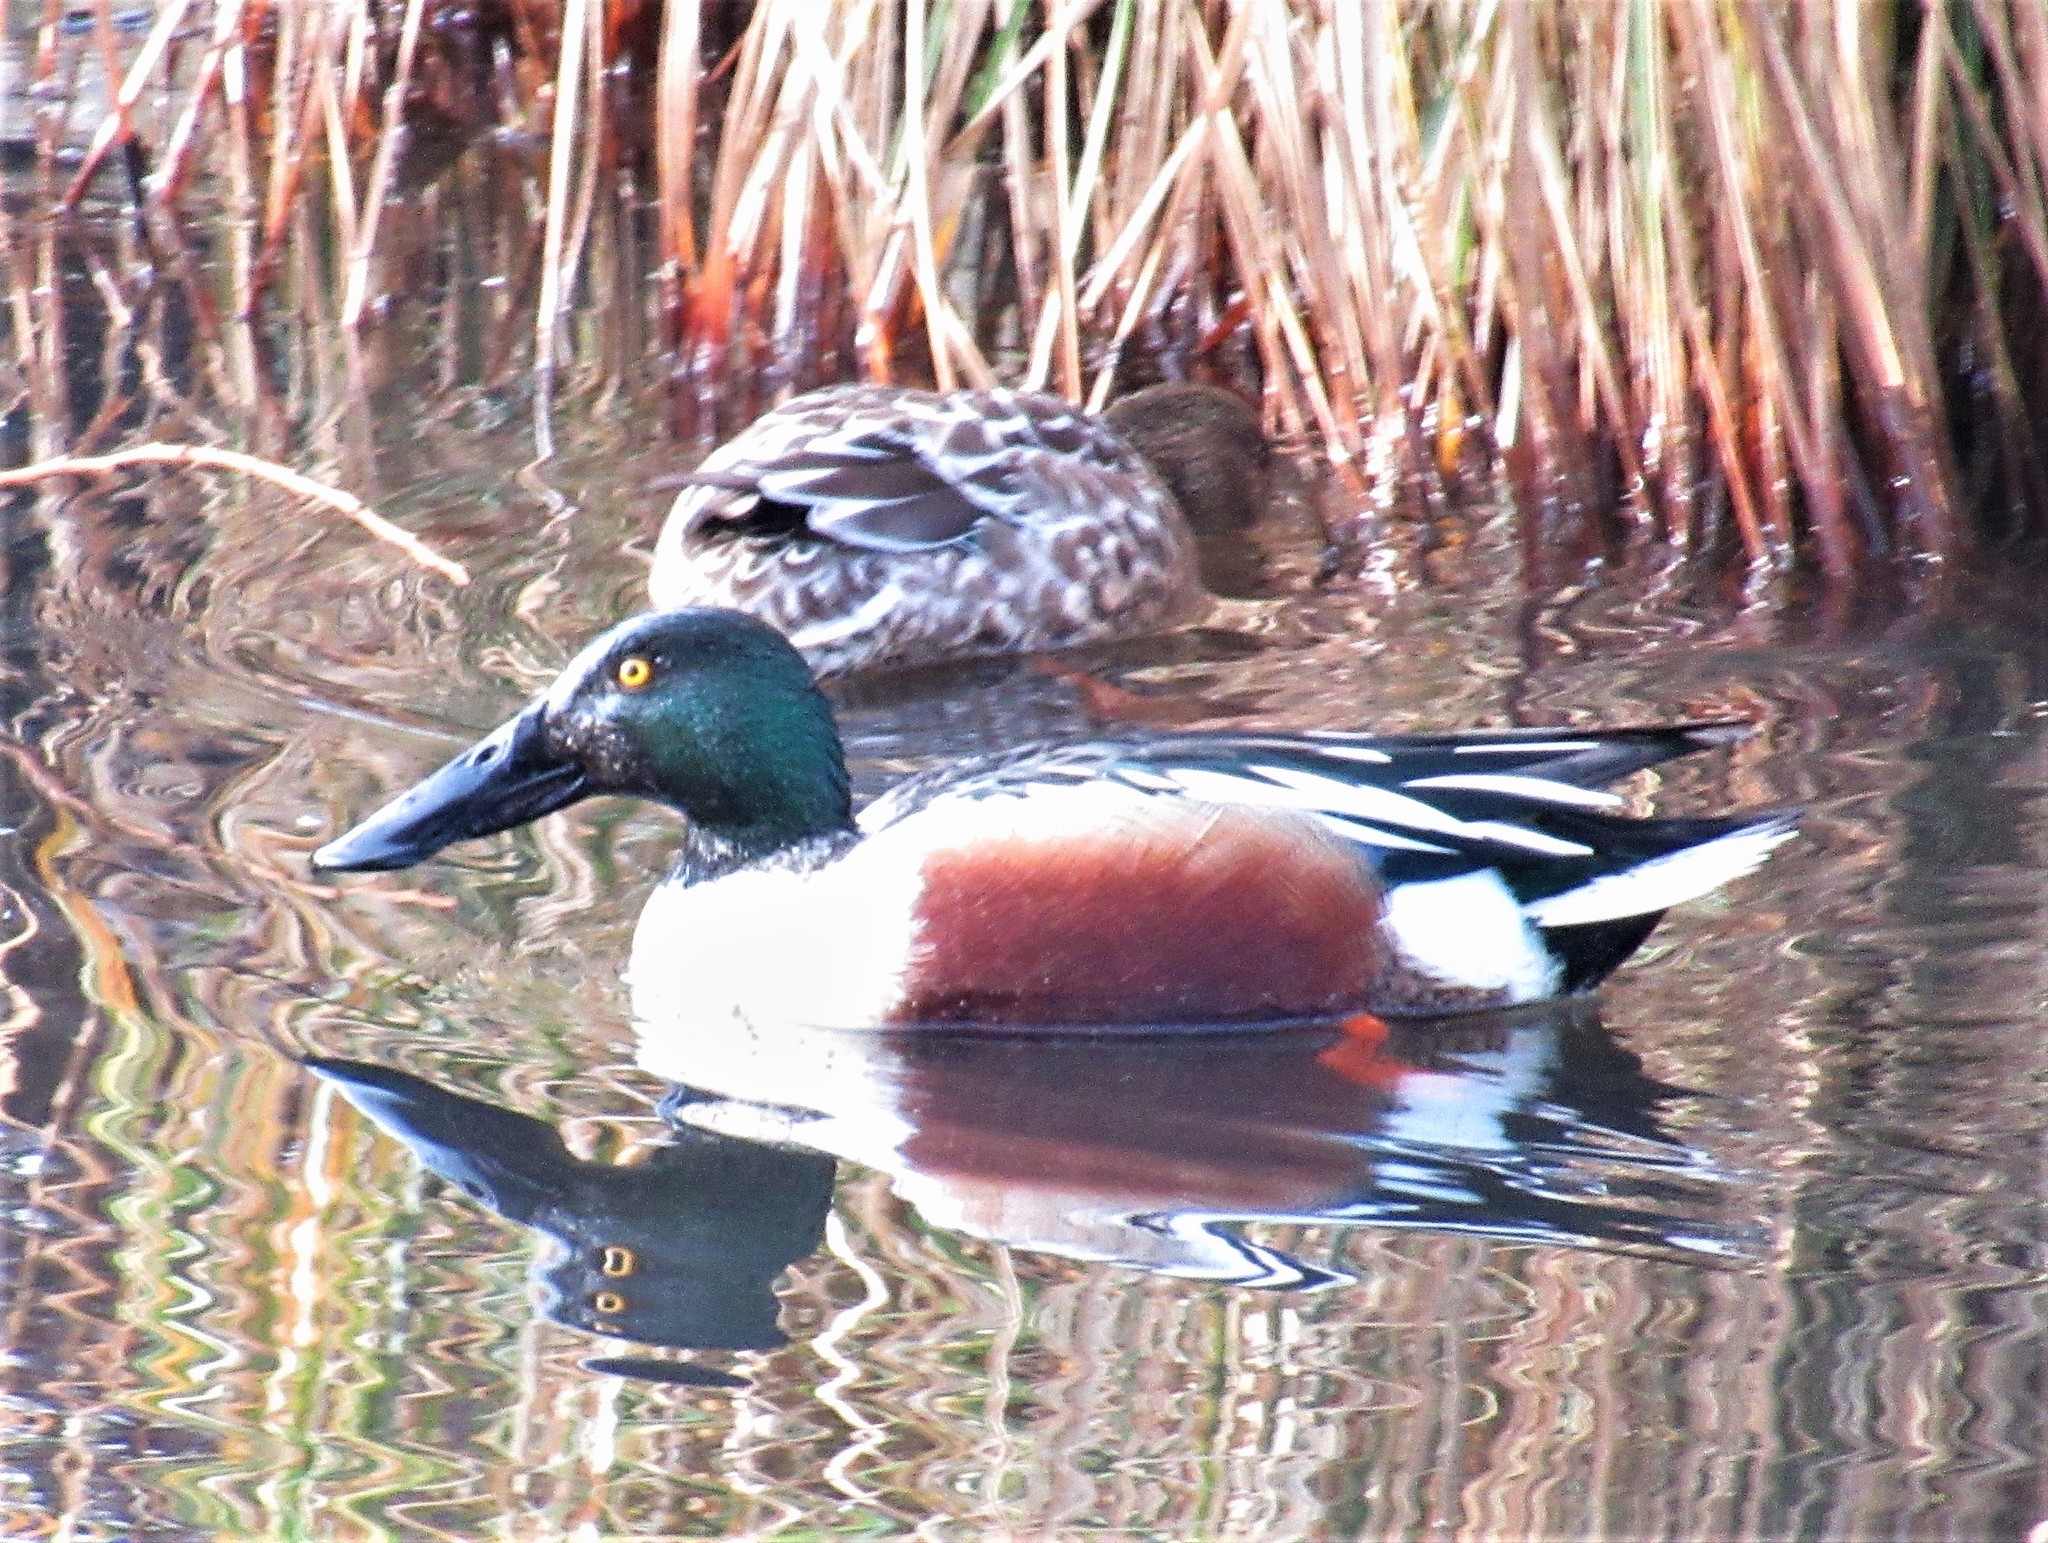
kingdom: Animalia
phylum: Chordata
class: Aves
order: Anseriformes
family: Anatidae
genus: Spatula
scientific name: Spatula clypeata
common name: Northern shoveler
